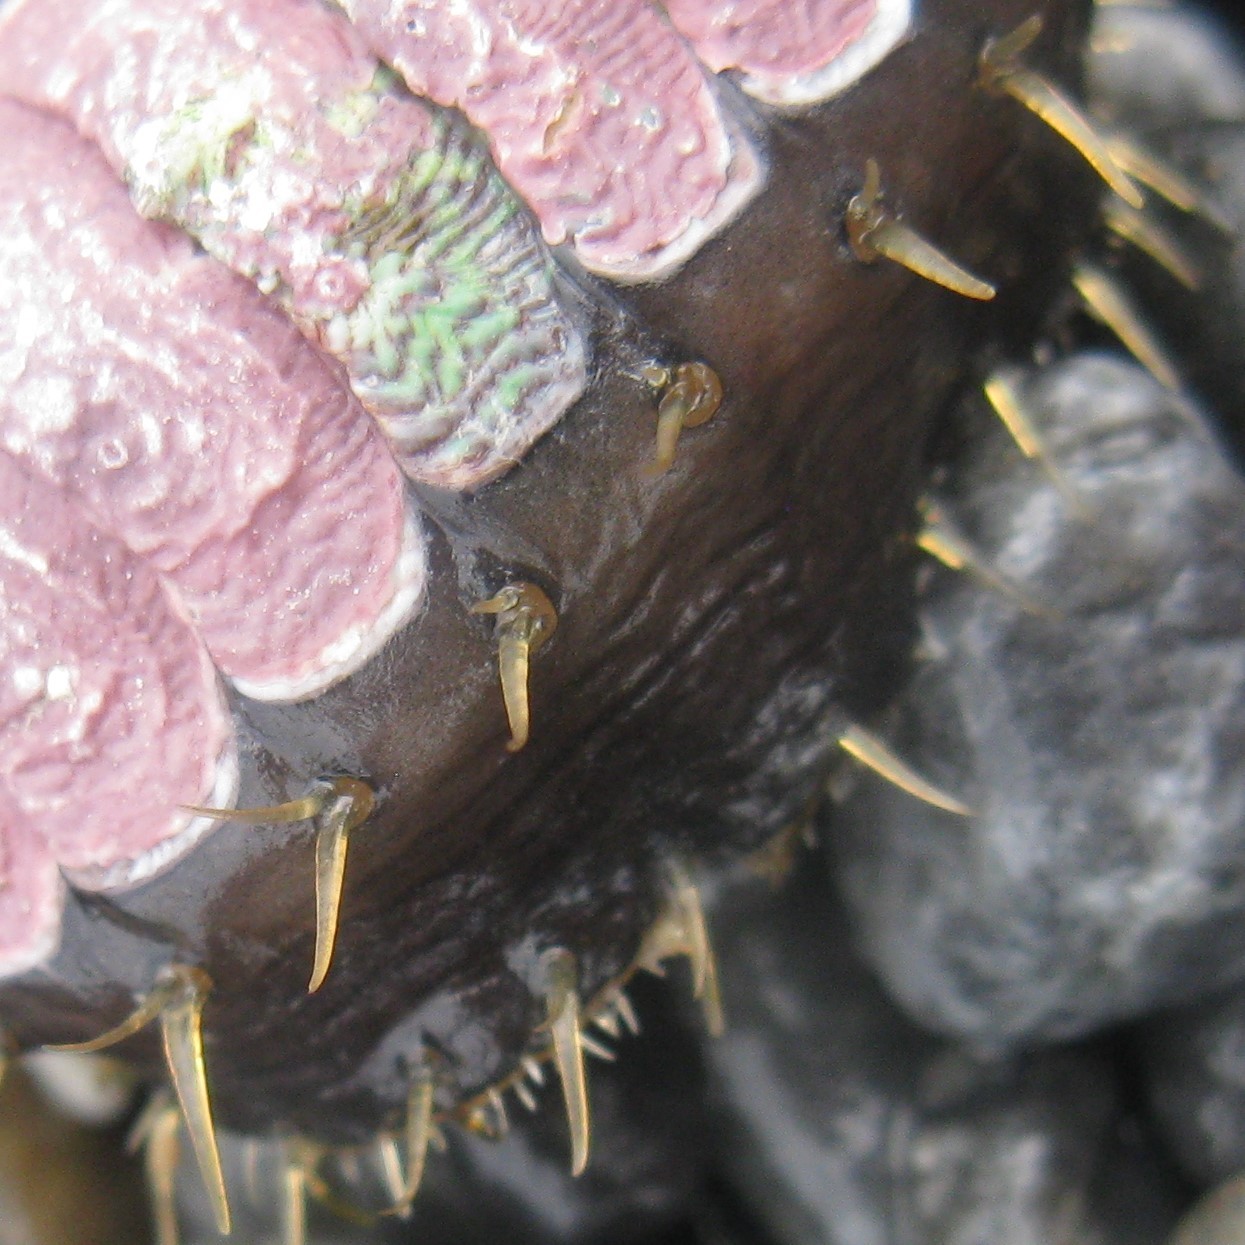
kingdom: Animalia
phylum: Mollusca
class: Polyplacophora
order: Chitonida
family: Mopaliidae
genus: Plaxiphora
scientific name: Plaxiphora biramosa
